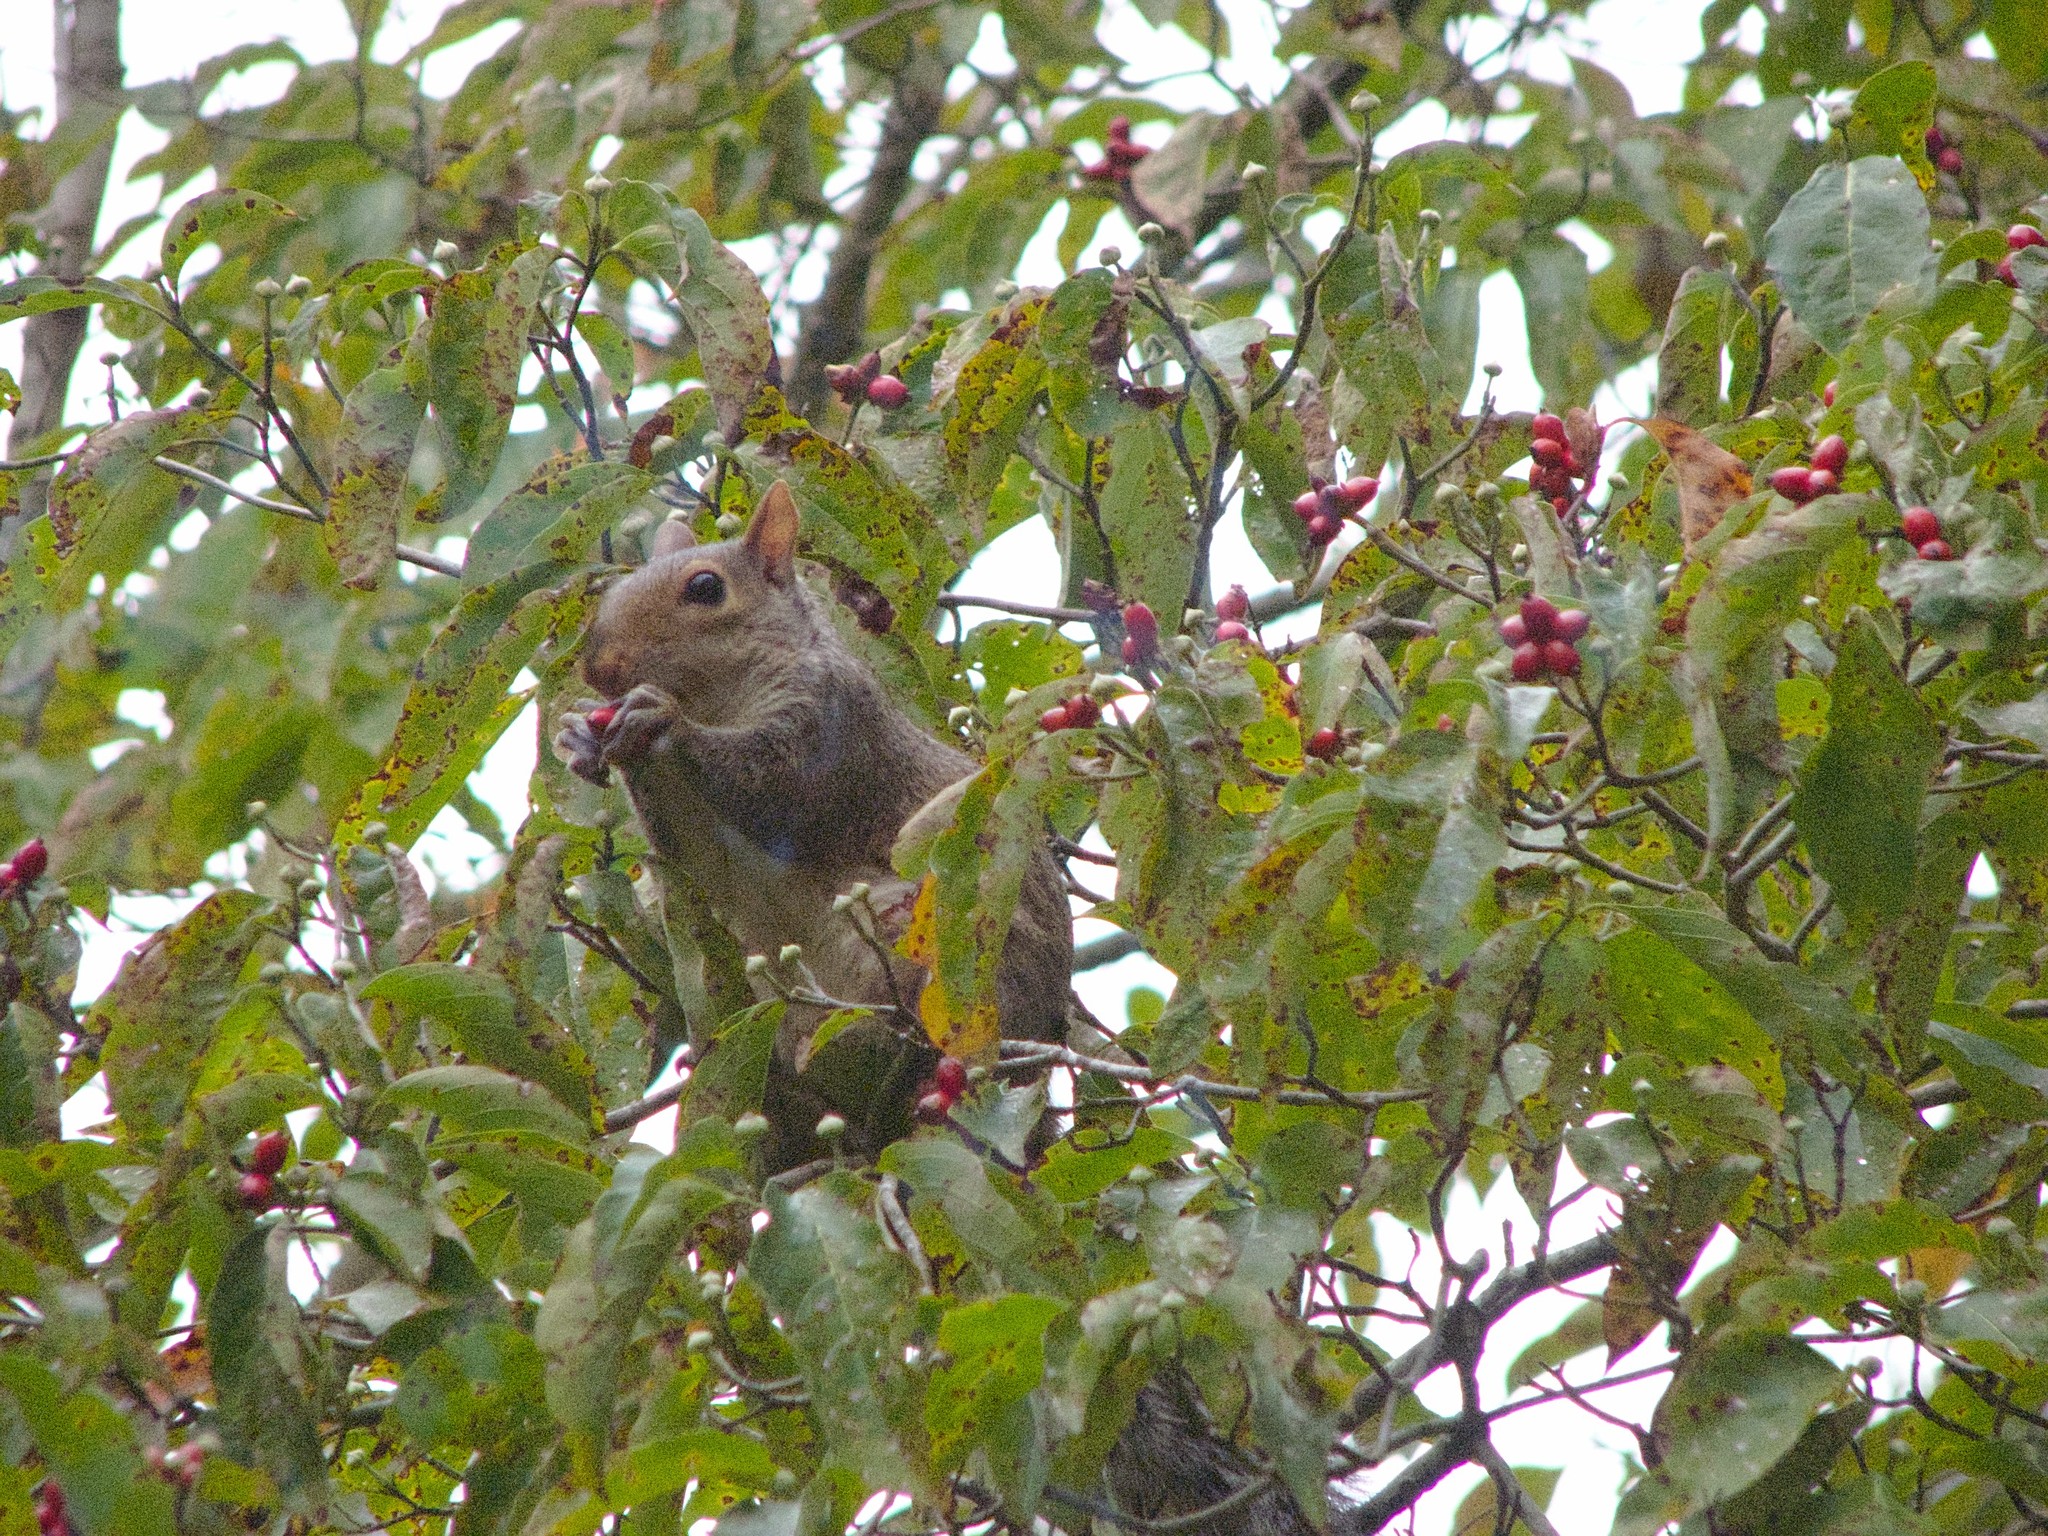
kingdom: Animalia
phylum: Chordata
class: Mammalia
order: Rodentia
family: Sciuridae
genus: Sciurus
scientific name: Sciurus carolinensis
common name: Eastern gray squirrel
